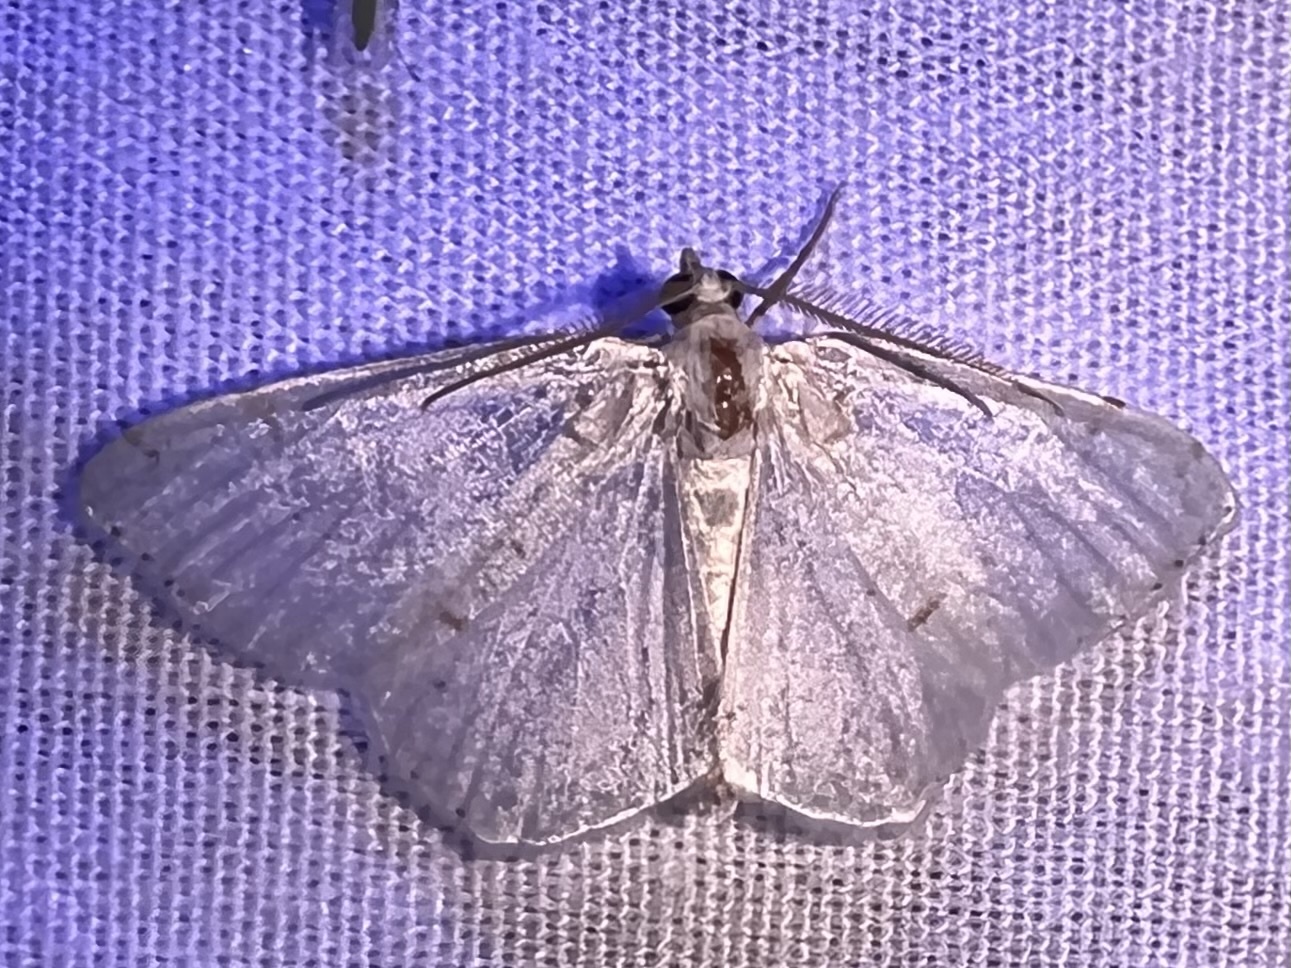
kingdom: Animalia
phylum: Arthropoda
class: Insecta
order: Lepidoptera
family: Geometridae
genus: Macaria
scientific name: Macaria pustularia
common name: Lesser maple spanworm moth
